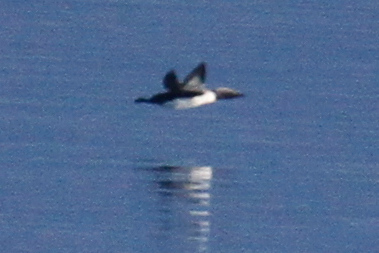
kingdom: Animalia
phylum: Chordata
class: Aves
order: Gaviiformes
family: Gaviidae
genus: Gavia
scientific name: Gavia pacifica
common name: Pacific loon
